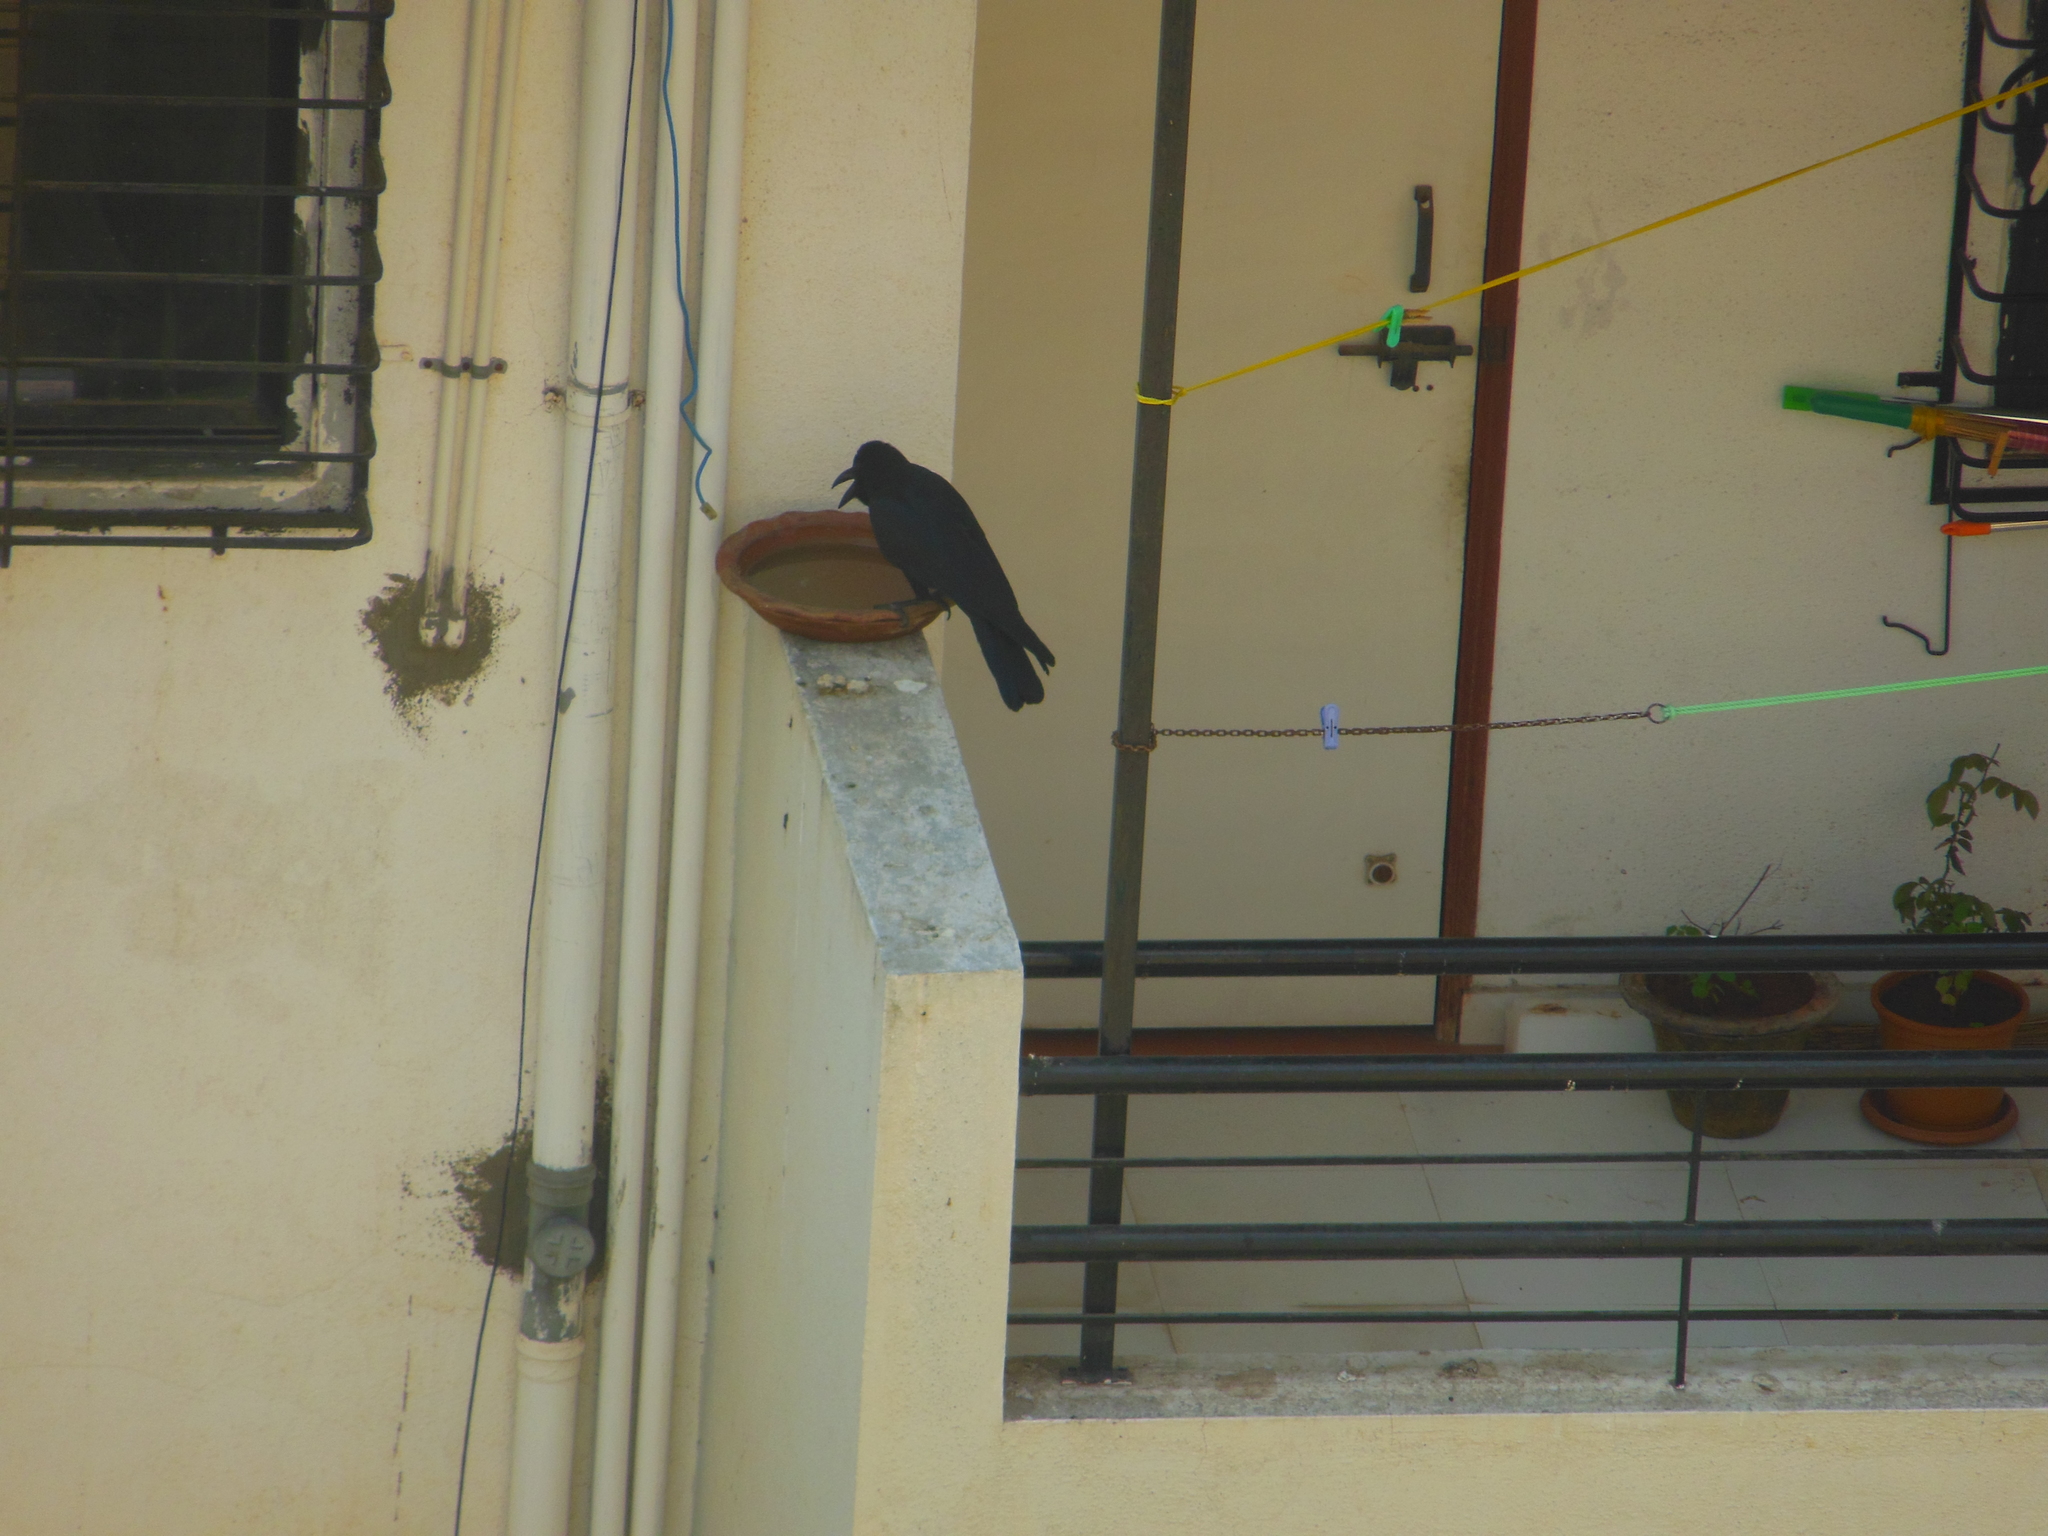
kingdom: Animalia
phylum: Chordata
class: Aves
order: Passeriformes
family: Corvidae
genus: Corvus
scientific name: Corvus macrorhynchos
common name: Large-billed crow
